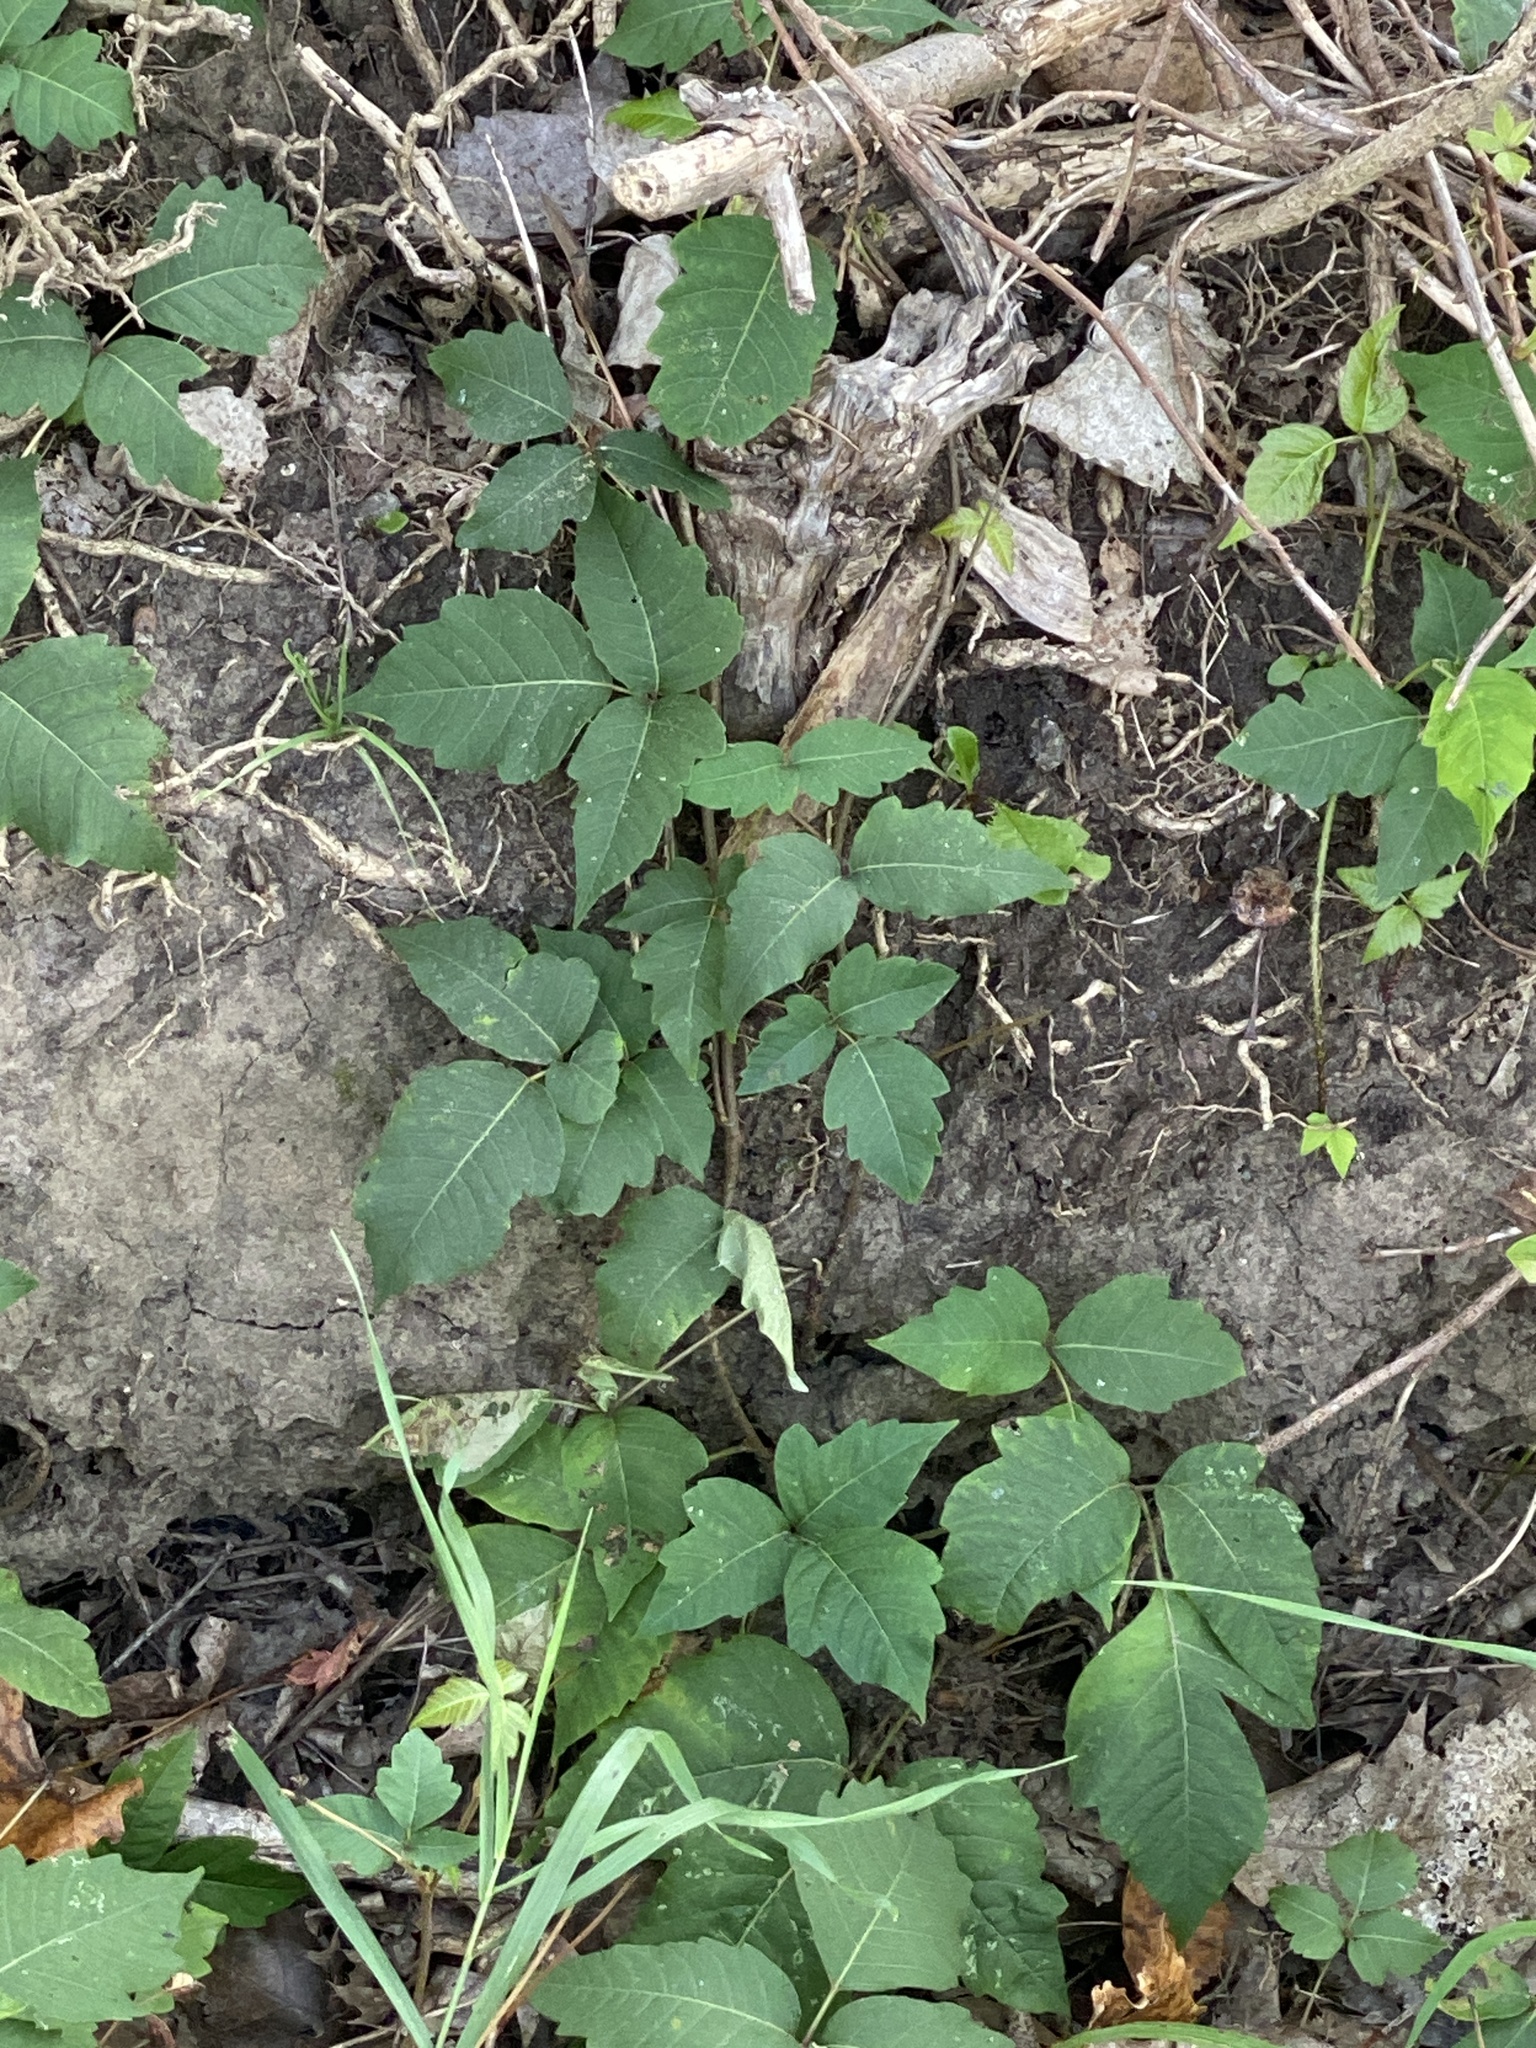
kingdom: Plantae
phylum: Tracheophyta
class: Magnoliopsida
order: Sapindales
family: Anacardiaceae
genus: Toxicodendron
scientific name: Toxicodendron radicans
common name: Poison ivy
